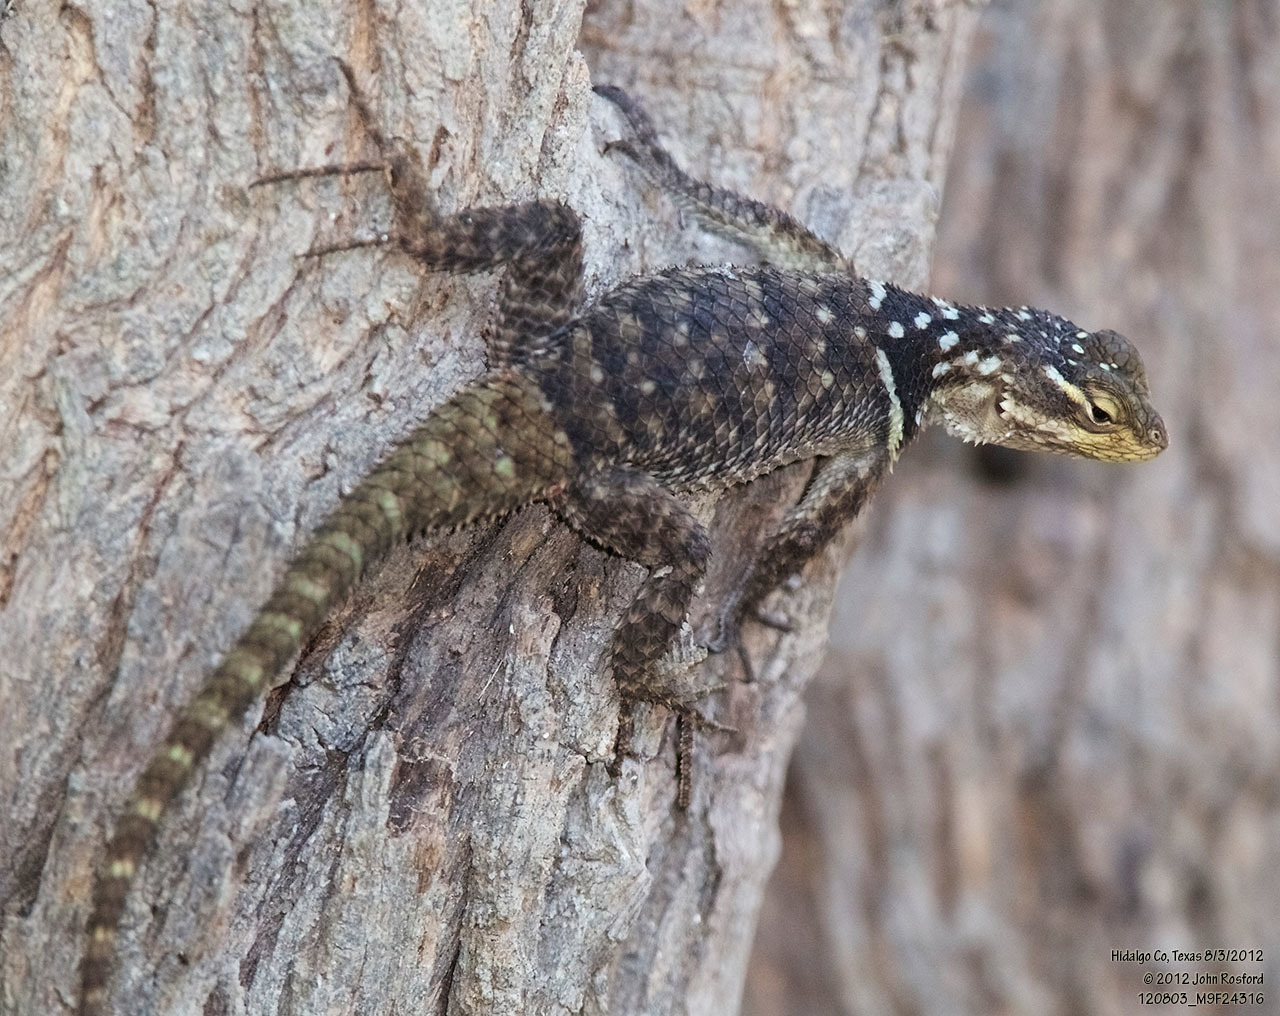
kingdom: Animalia
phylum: Chordata
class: Squamata
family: Phrynosomatidae
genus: Sceloporus
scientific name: Sceloporus cyanogenys
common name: Blue spiny lizard
